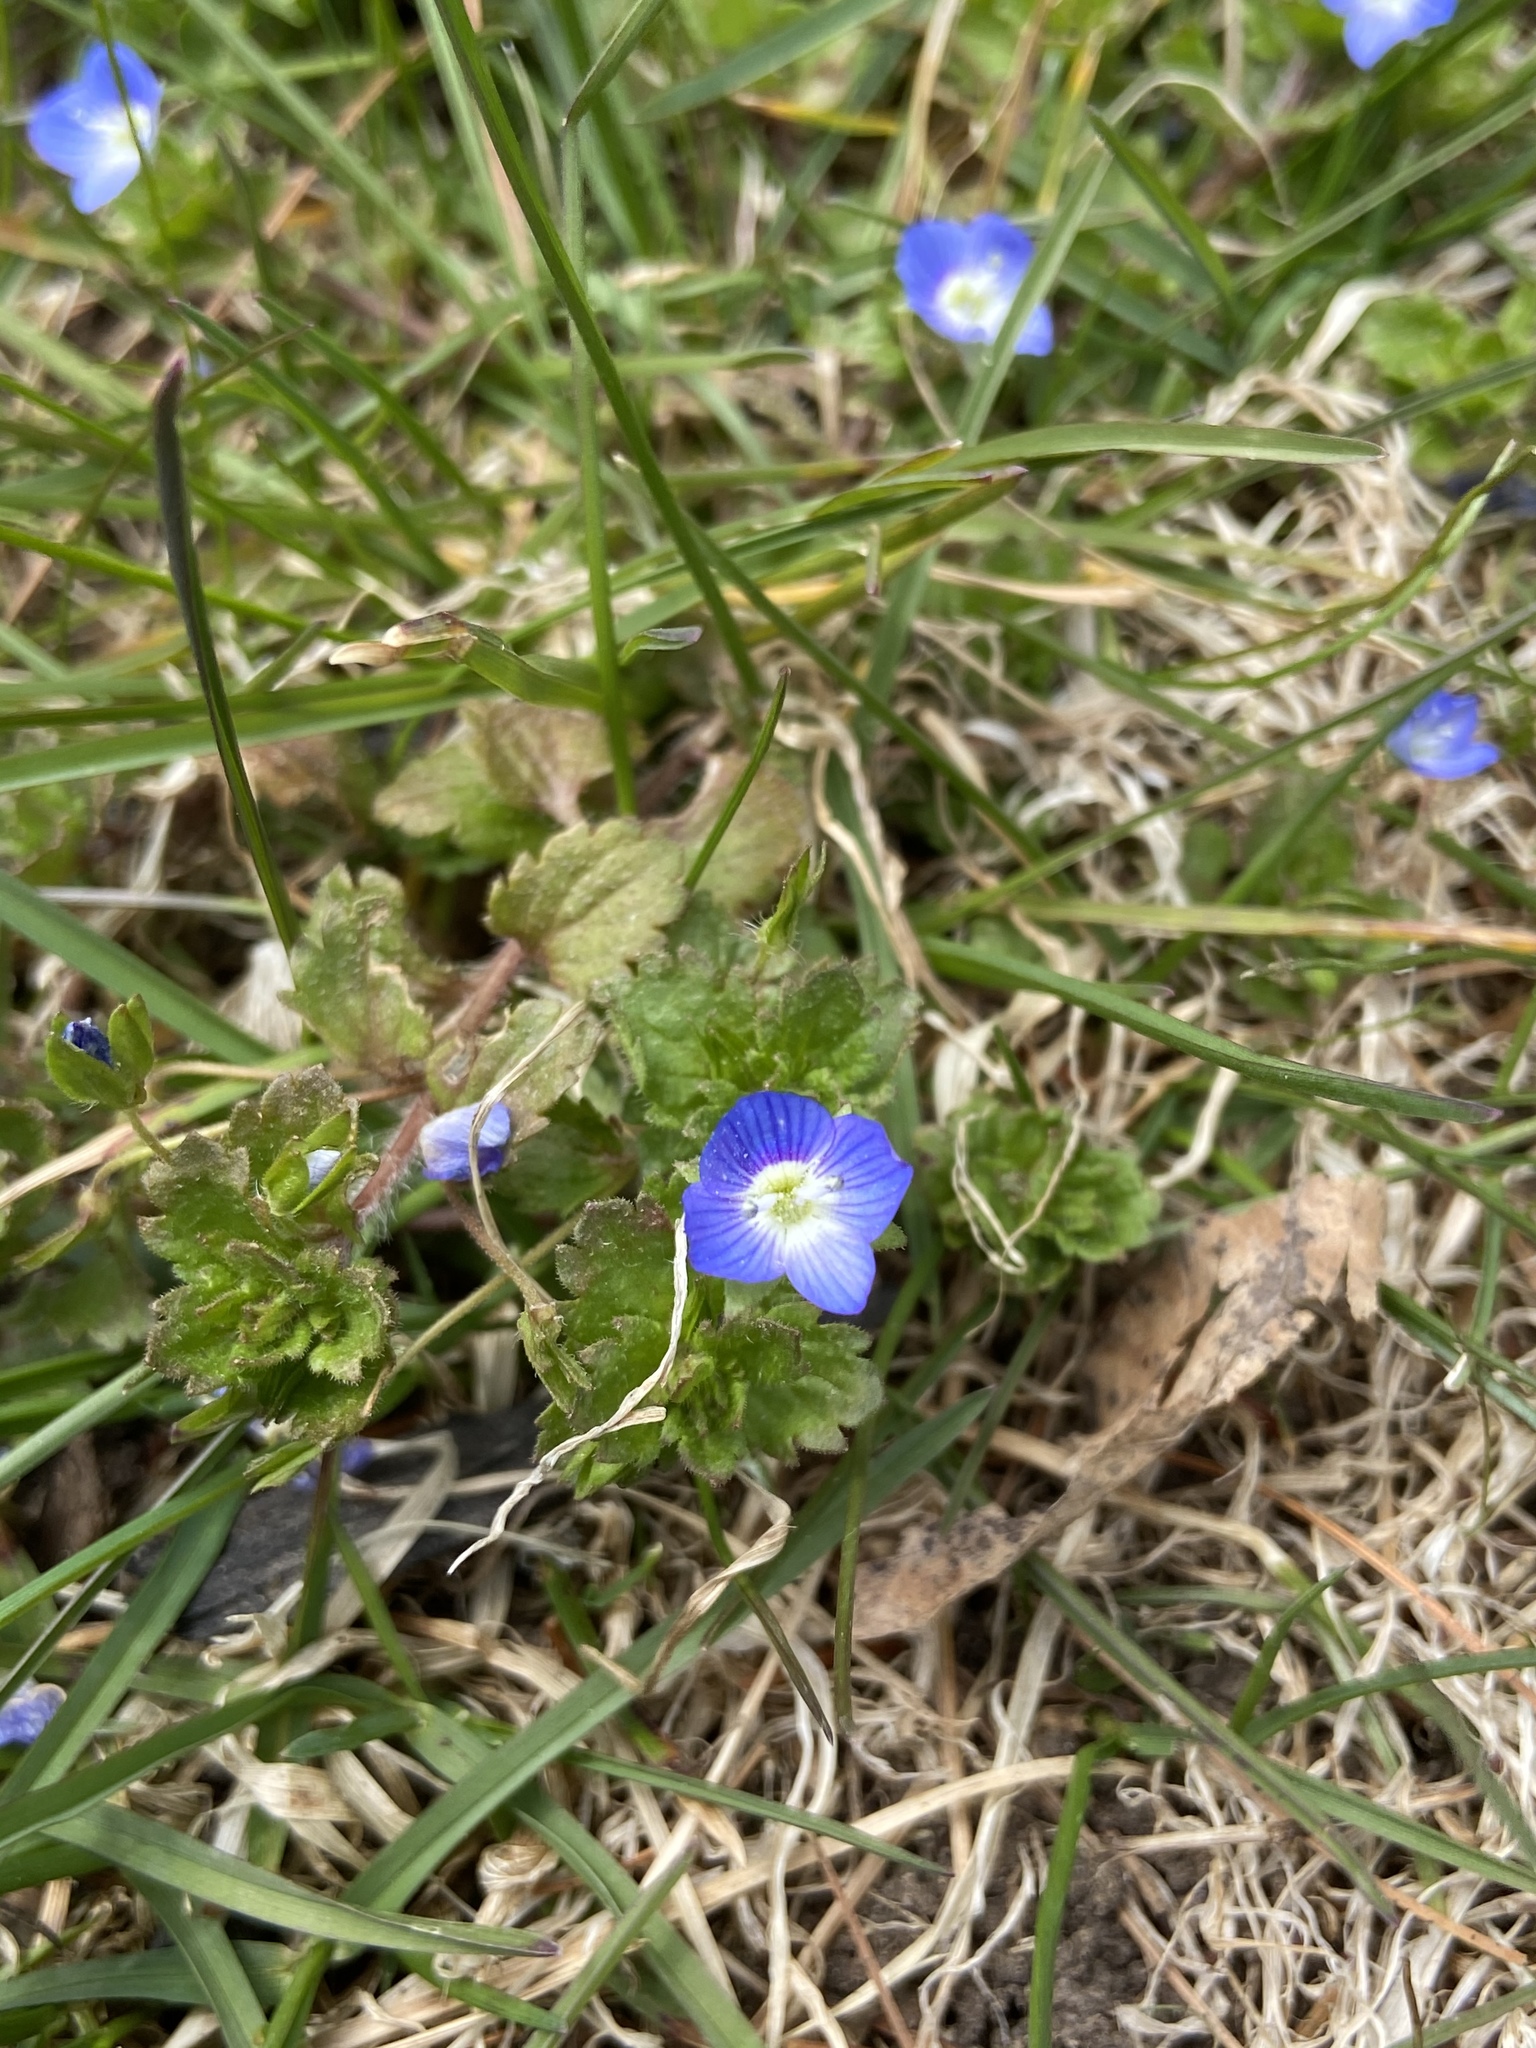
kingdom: Plantae
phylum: Tracheophyta
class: Magnoliopsida
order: Lamiales
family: Plantaginaceae
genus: Veronica
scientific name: Veronica persica
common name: Common field-speedwell
